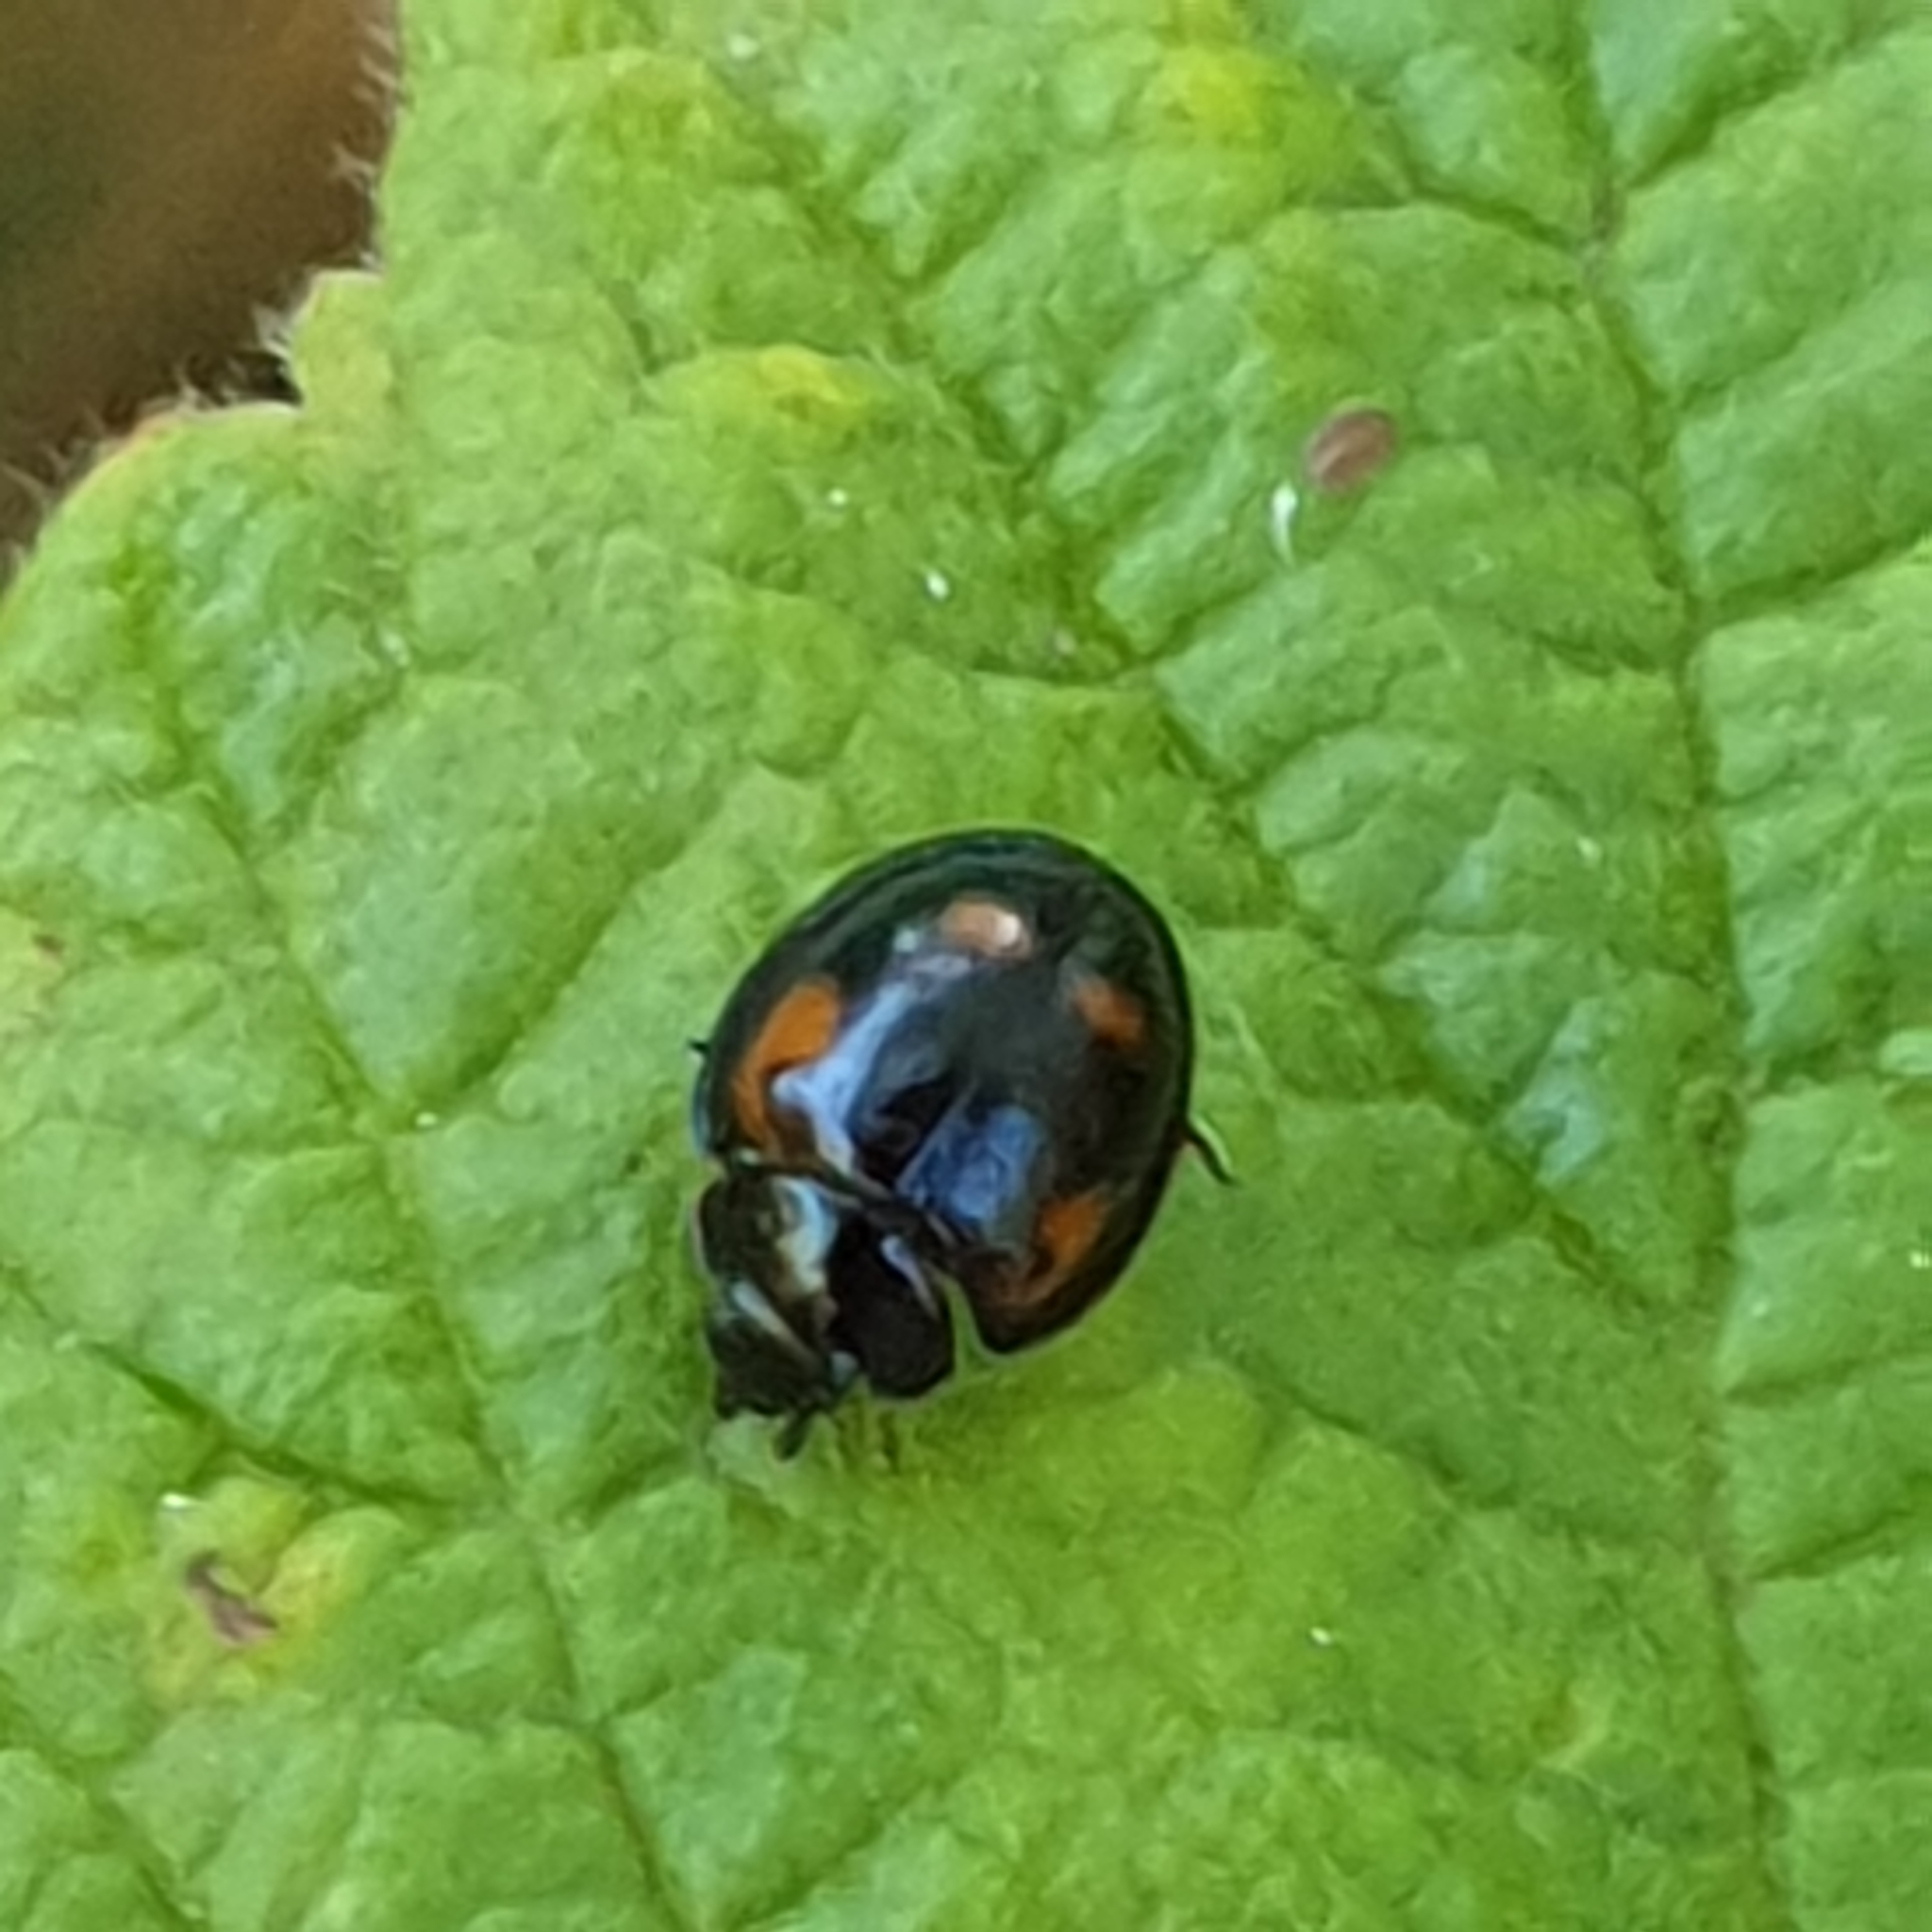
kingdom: Animalia
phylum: Arthropoda
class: Insecta
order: Coleoptera
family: Coccinellidae
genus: Brumus
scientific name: Brumus quadripustulatus
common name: Ladybird beetle
